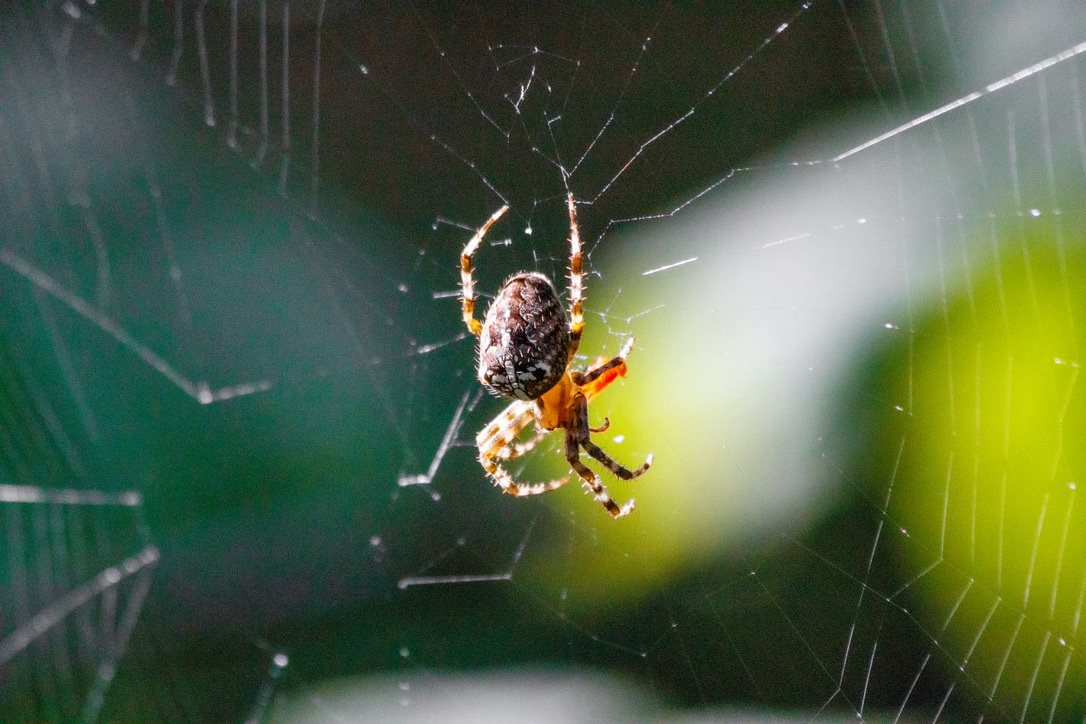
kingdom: Animalia
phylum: Arthropoda
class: Arachnida
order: Araneae
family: Araneidae
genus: Araneus
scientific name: Araneus diadematus
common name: Cross orbweaver
